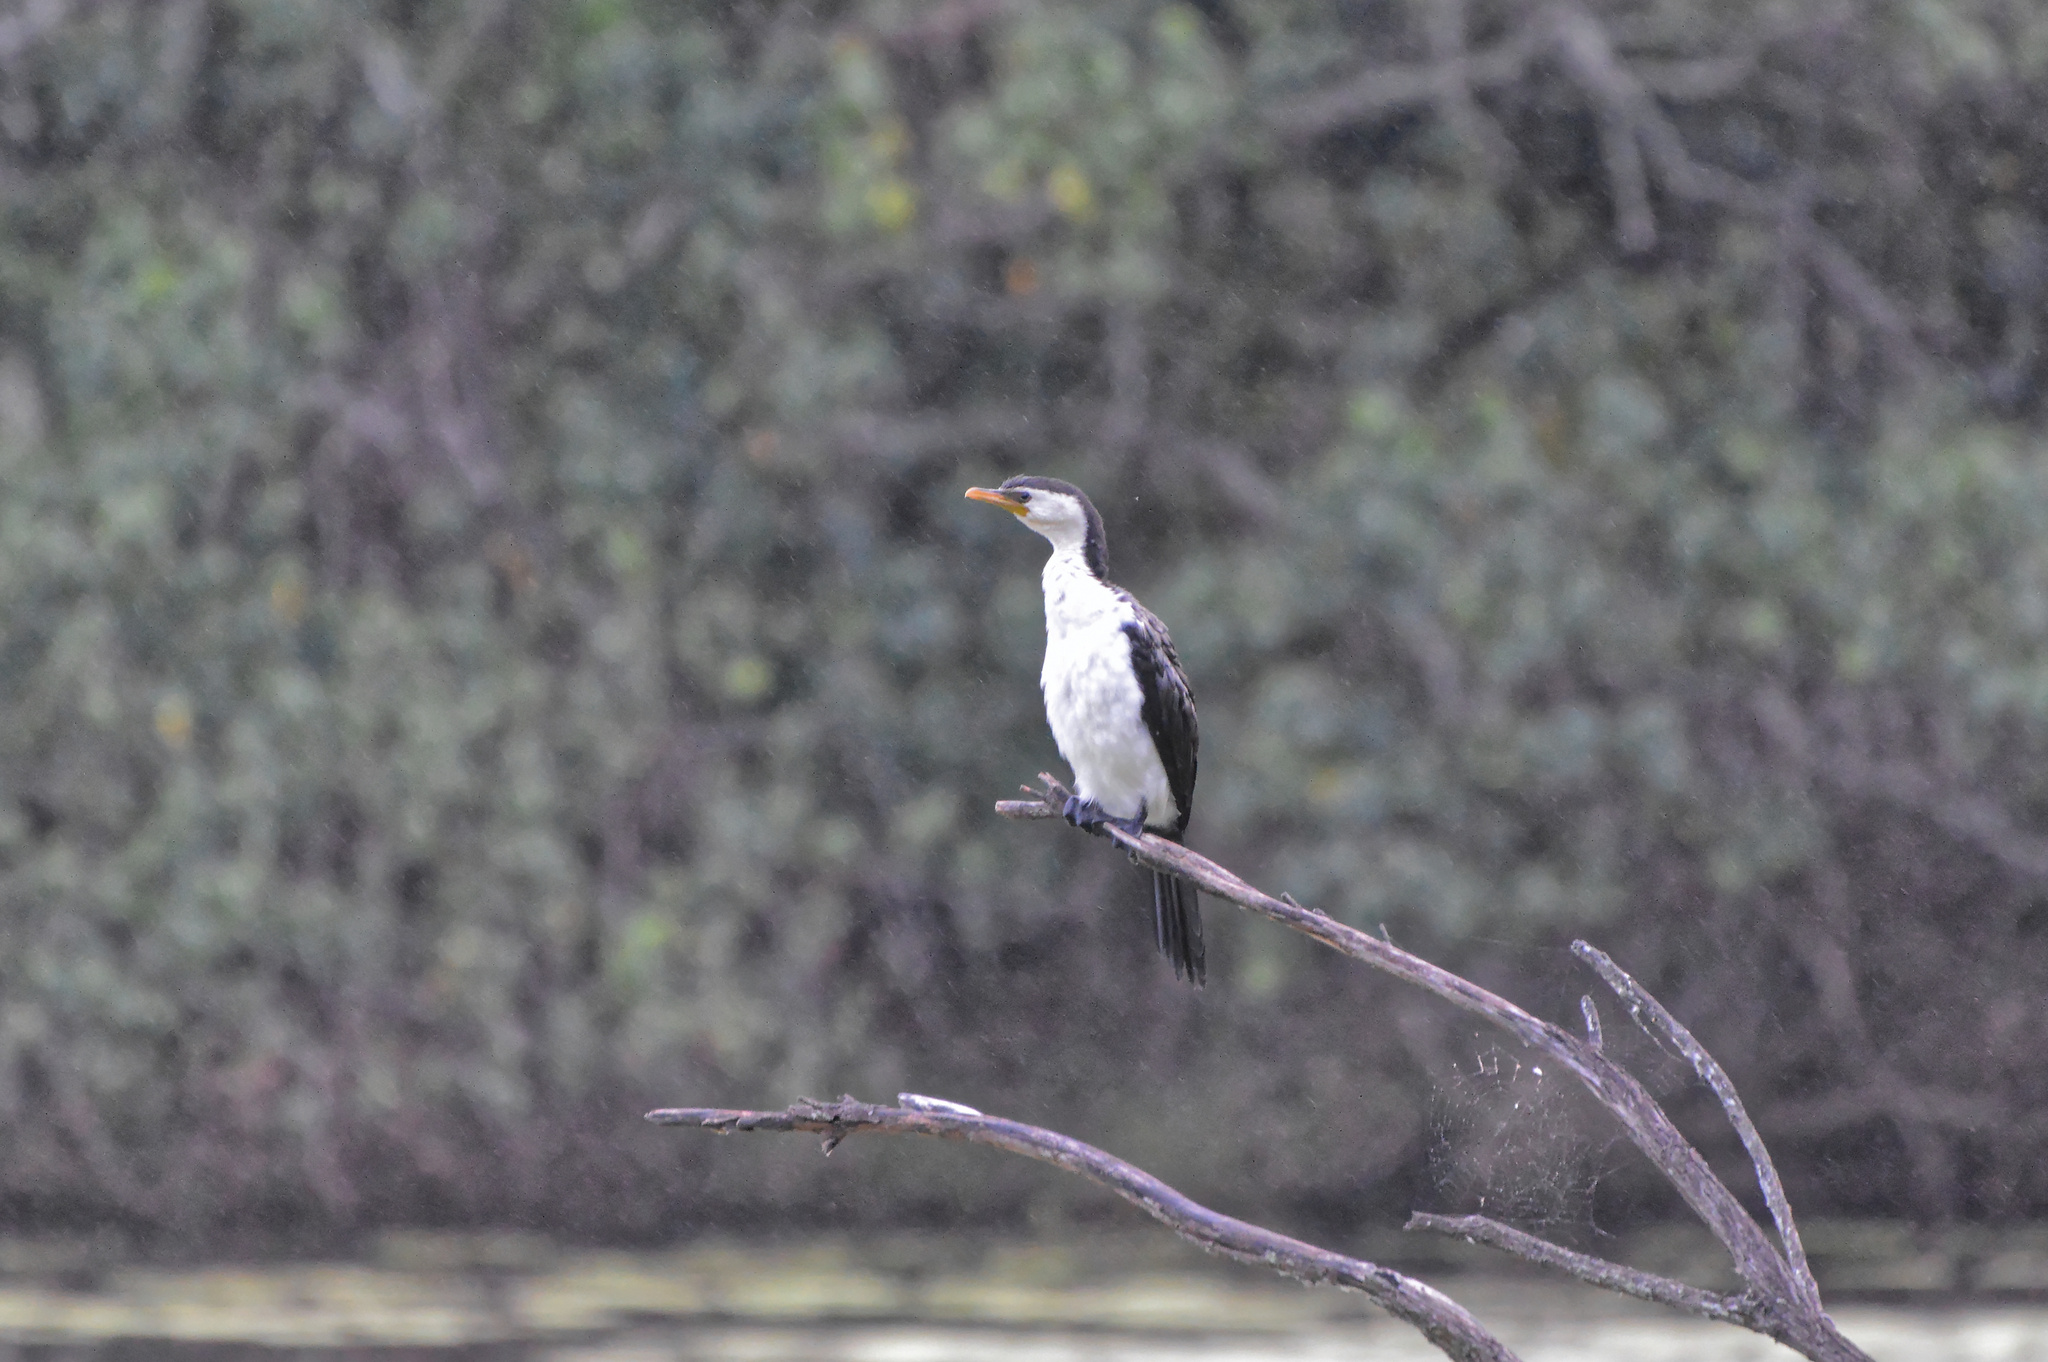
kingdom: Animalia
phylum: Chordata
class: Aves
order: Suliformes
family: Phalacrocoracidae
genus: Microcarbo
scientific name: Microcarbo melanoleucos
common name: Little pied cormorant
